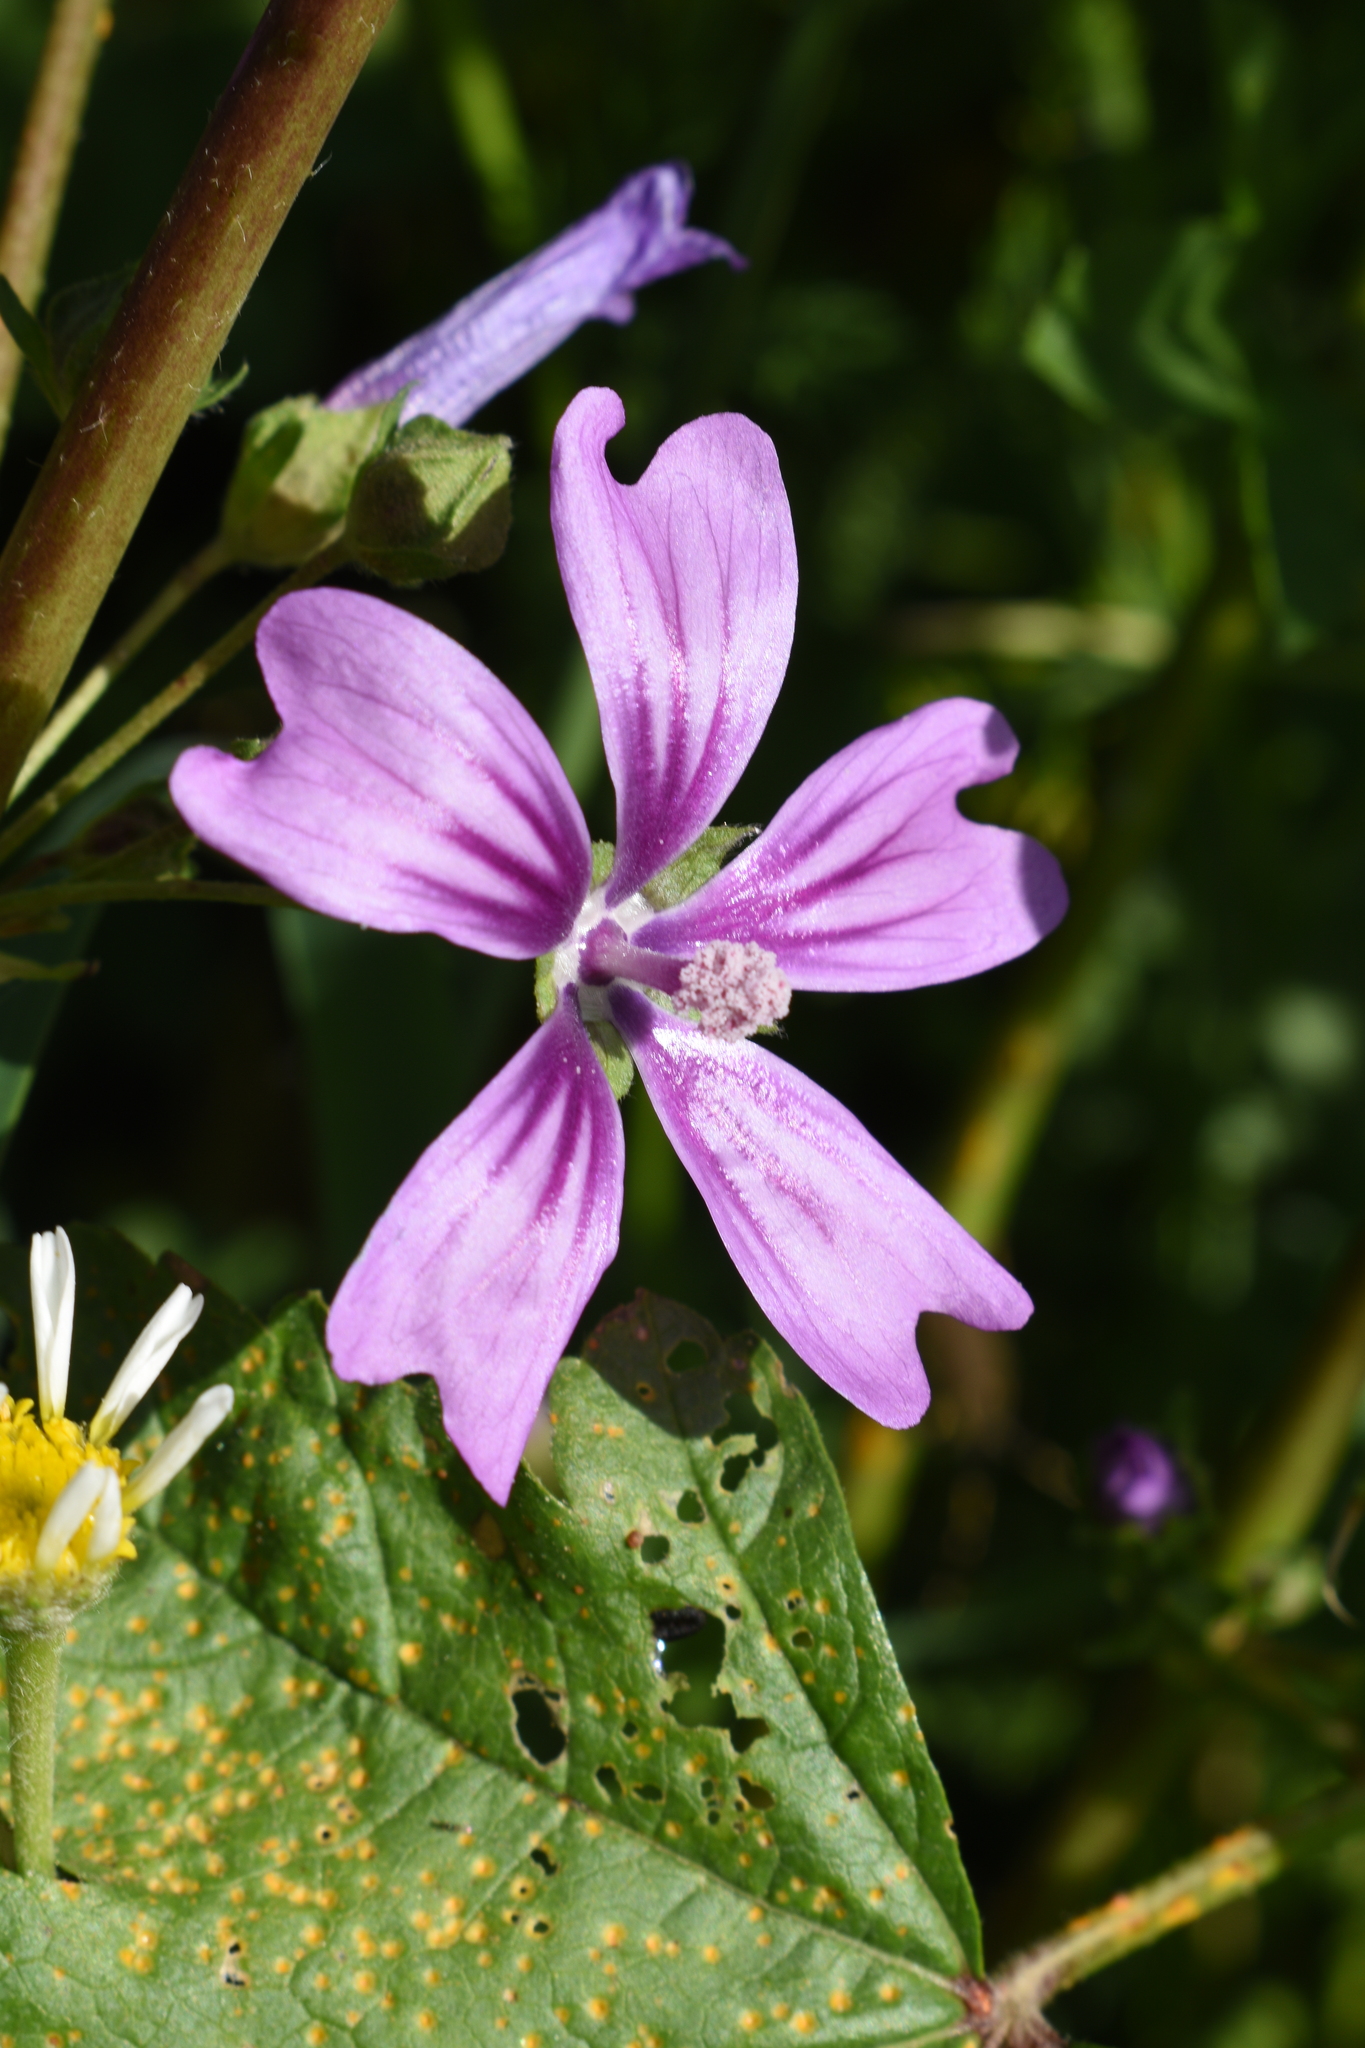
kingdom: Plantae
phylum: Tracheophyta
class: Magnoliopsida
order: Malvales
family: Malvaceae
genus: Malva
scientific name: Malva sylvestris
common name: Common mallow
